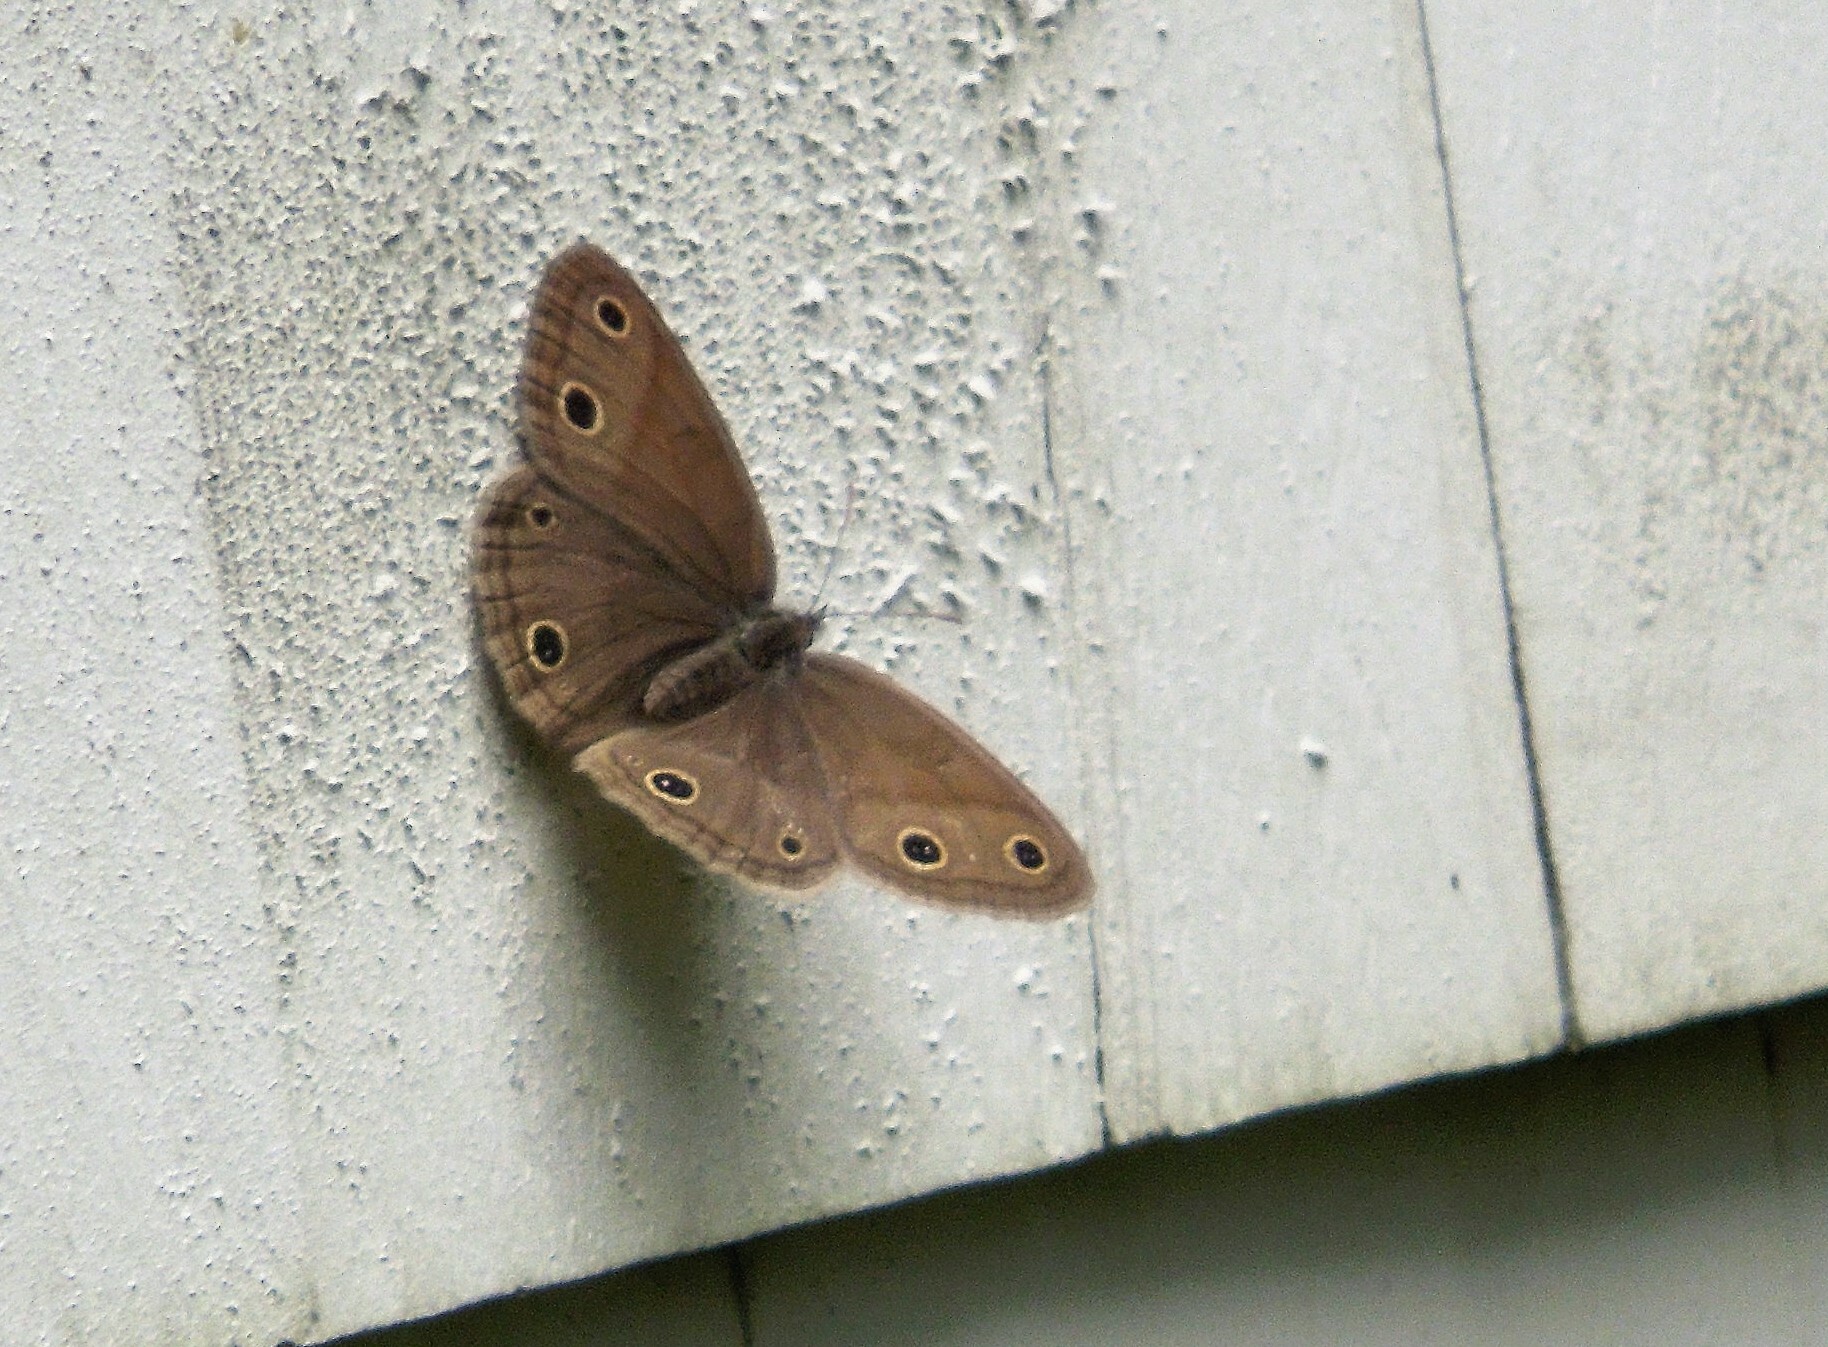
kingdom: Animalia
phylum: Arthropoda
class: Insecta
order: Lepidoptera
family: Nymphalidae
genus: Euptychia
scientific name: Euptychia cymela
